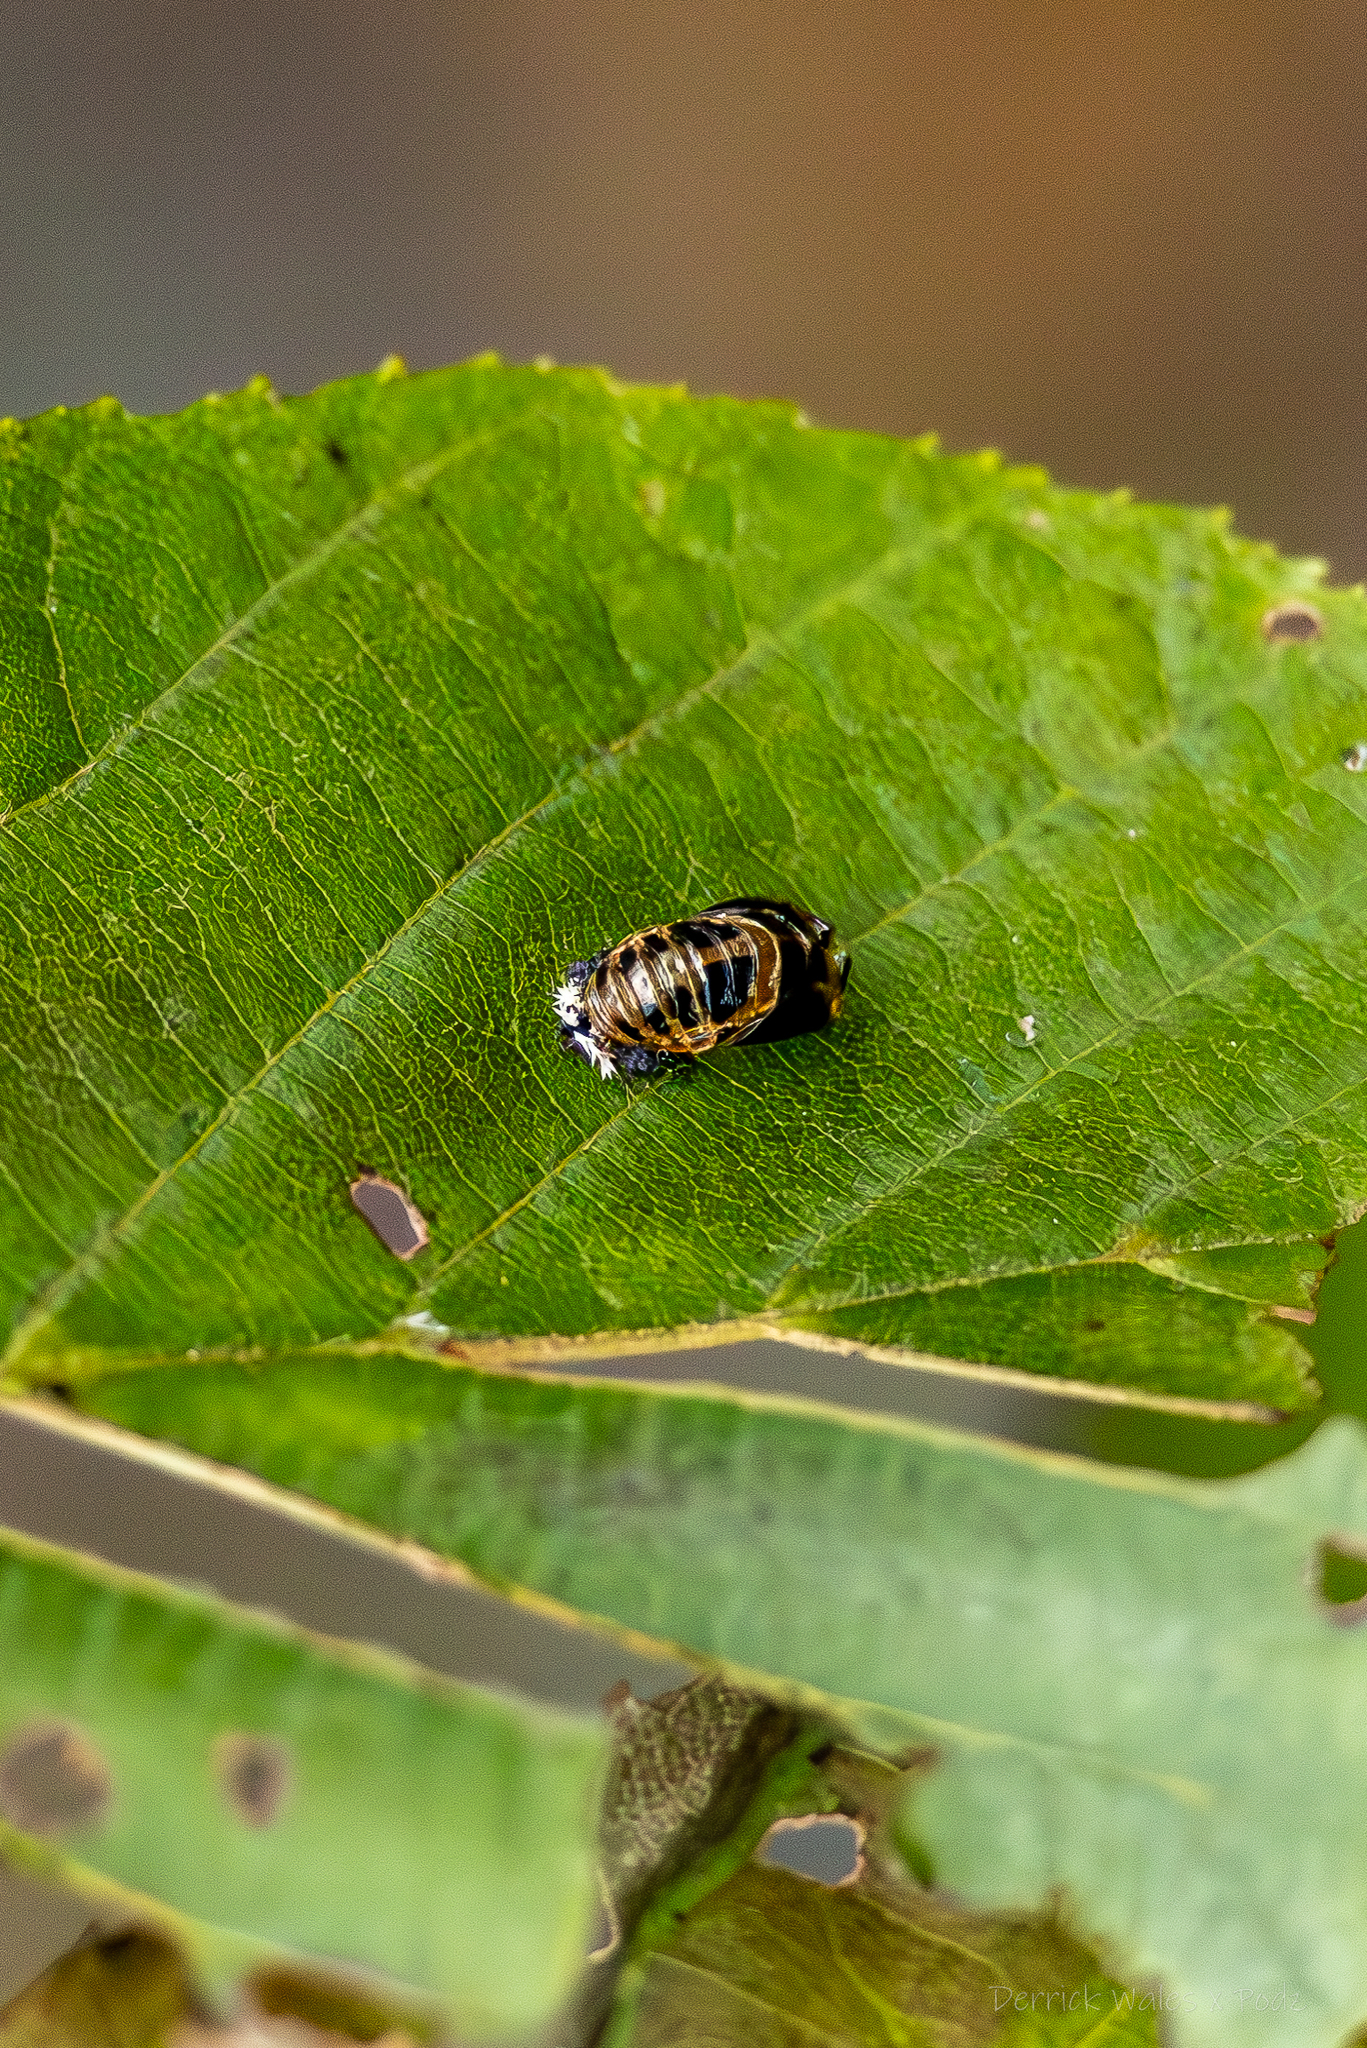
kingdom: Animalia
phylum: Arthropoda
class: Insecta
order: Coleoptera
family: Coccinellidae
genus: Harmonia
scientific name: Harmonia axyridis
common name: Harlequin ladybird
